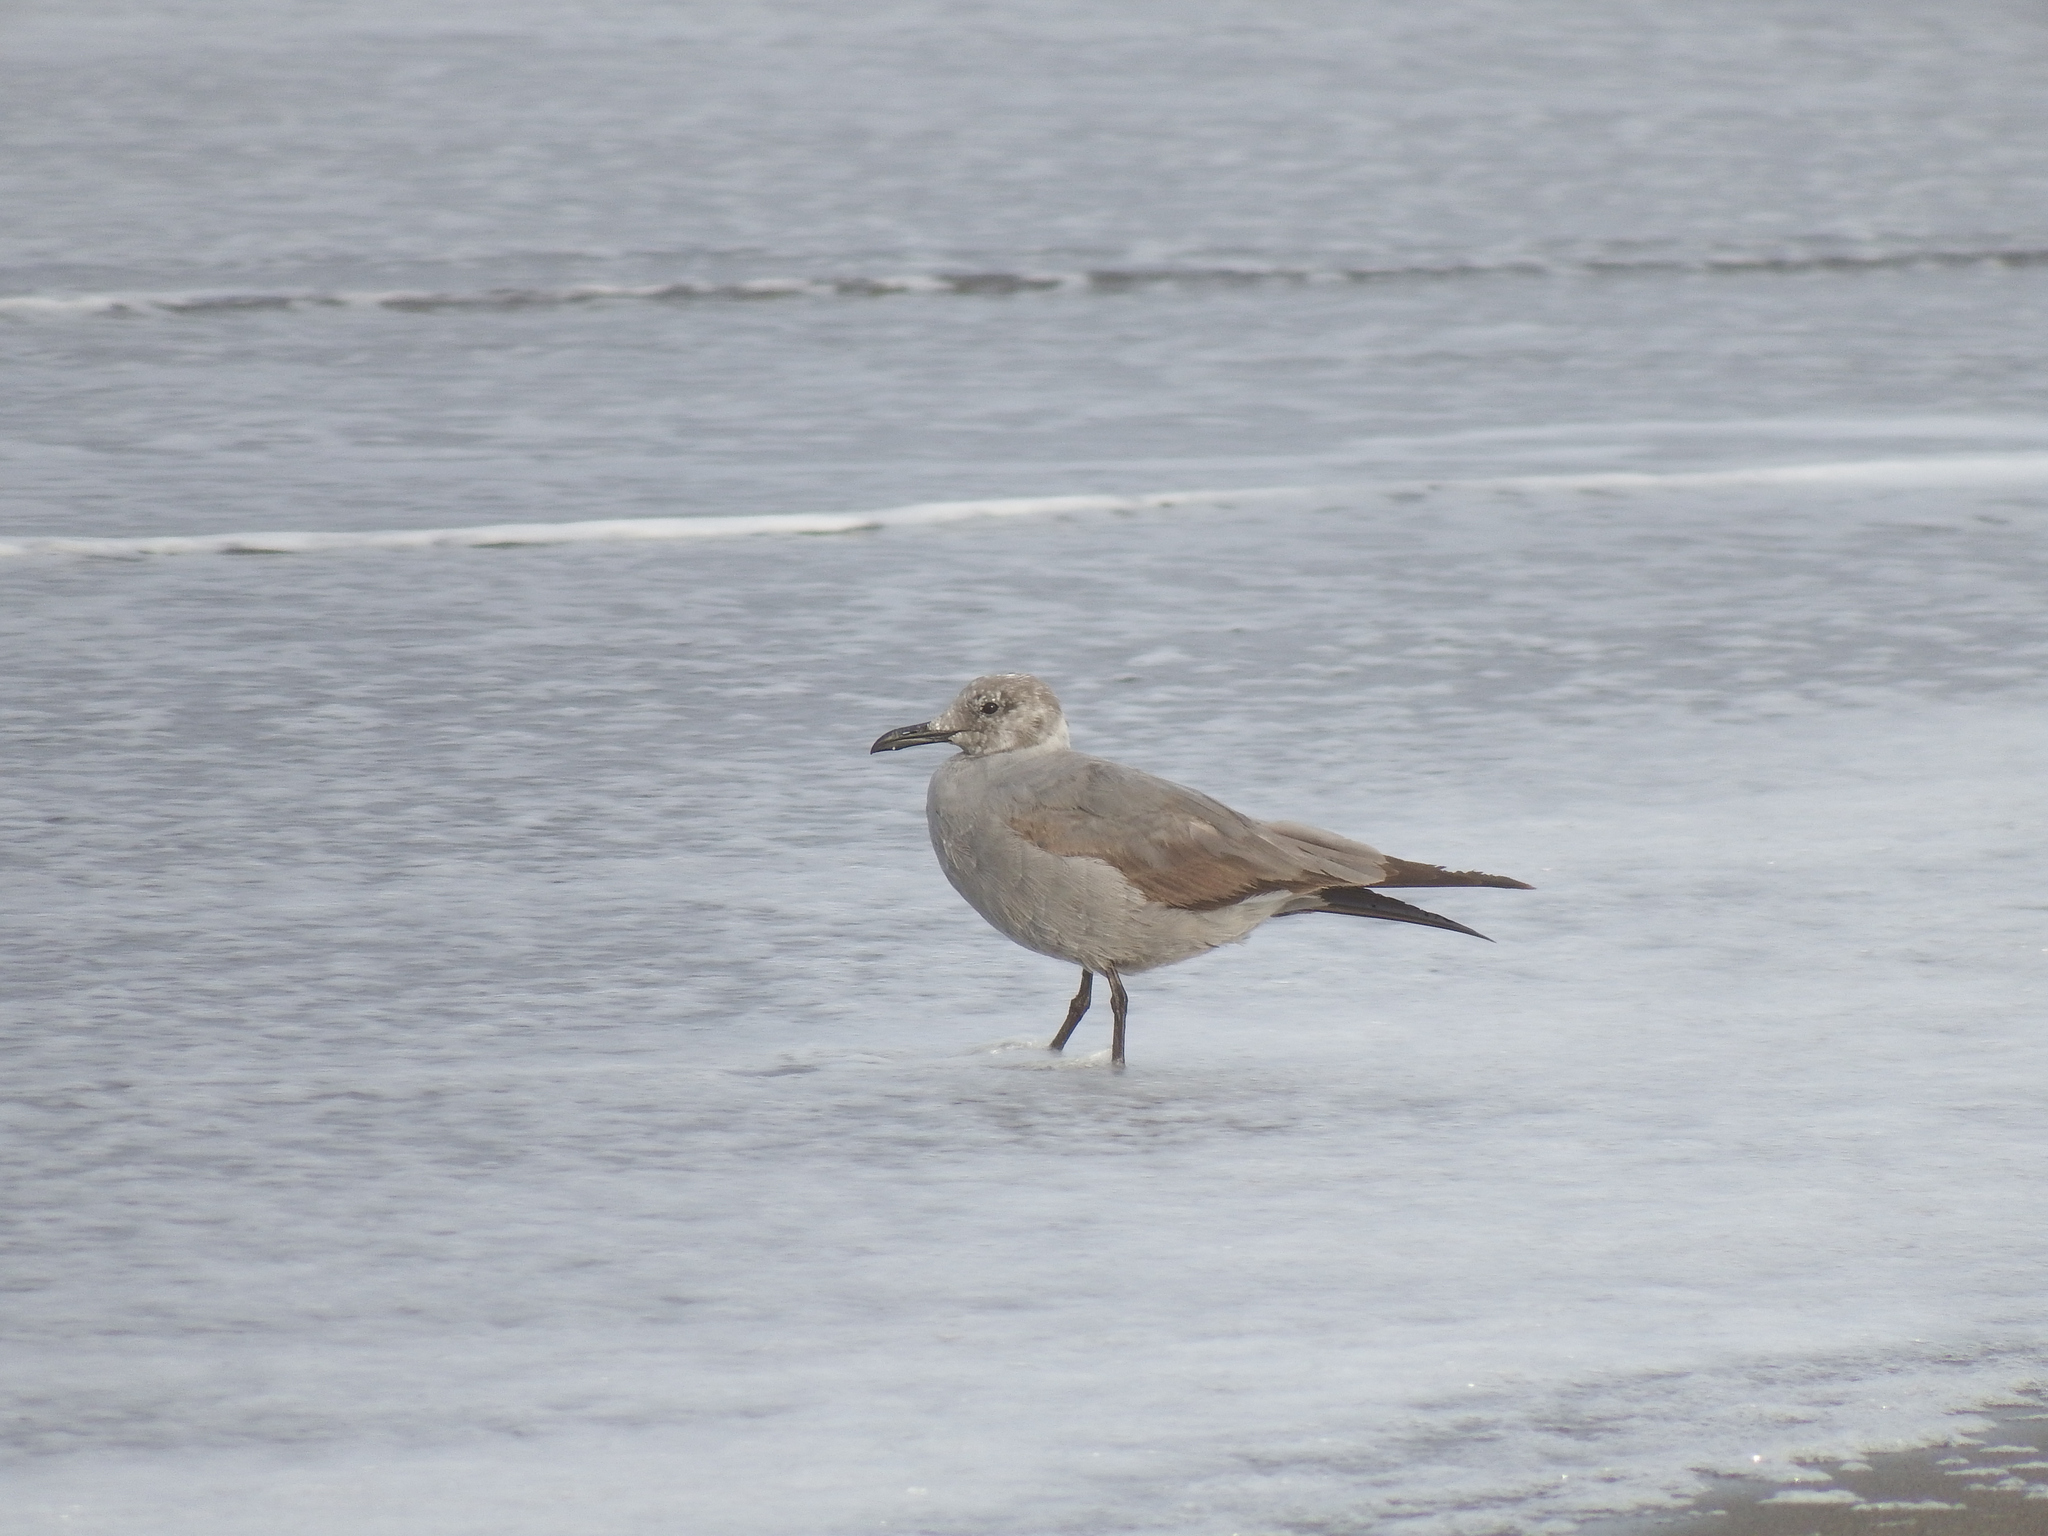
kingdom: Animalia
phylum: Chordata
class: Aves
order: Charadriiformes
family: Laridae
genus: Leucophaeus
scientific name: Leucophaeus modestus
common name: Gray gull
